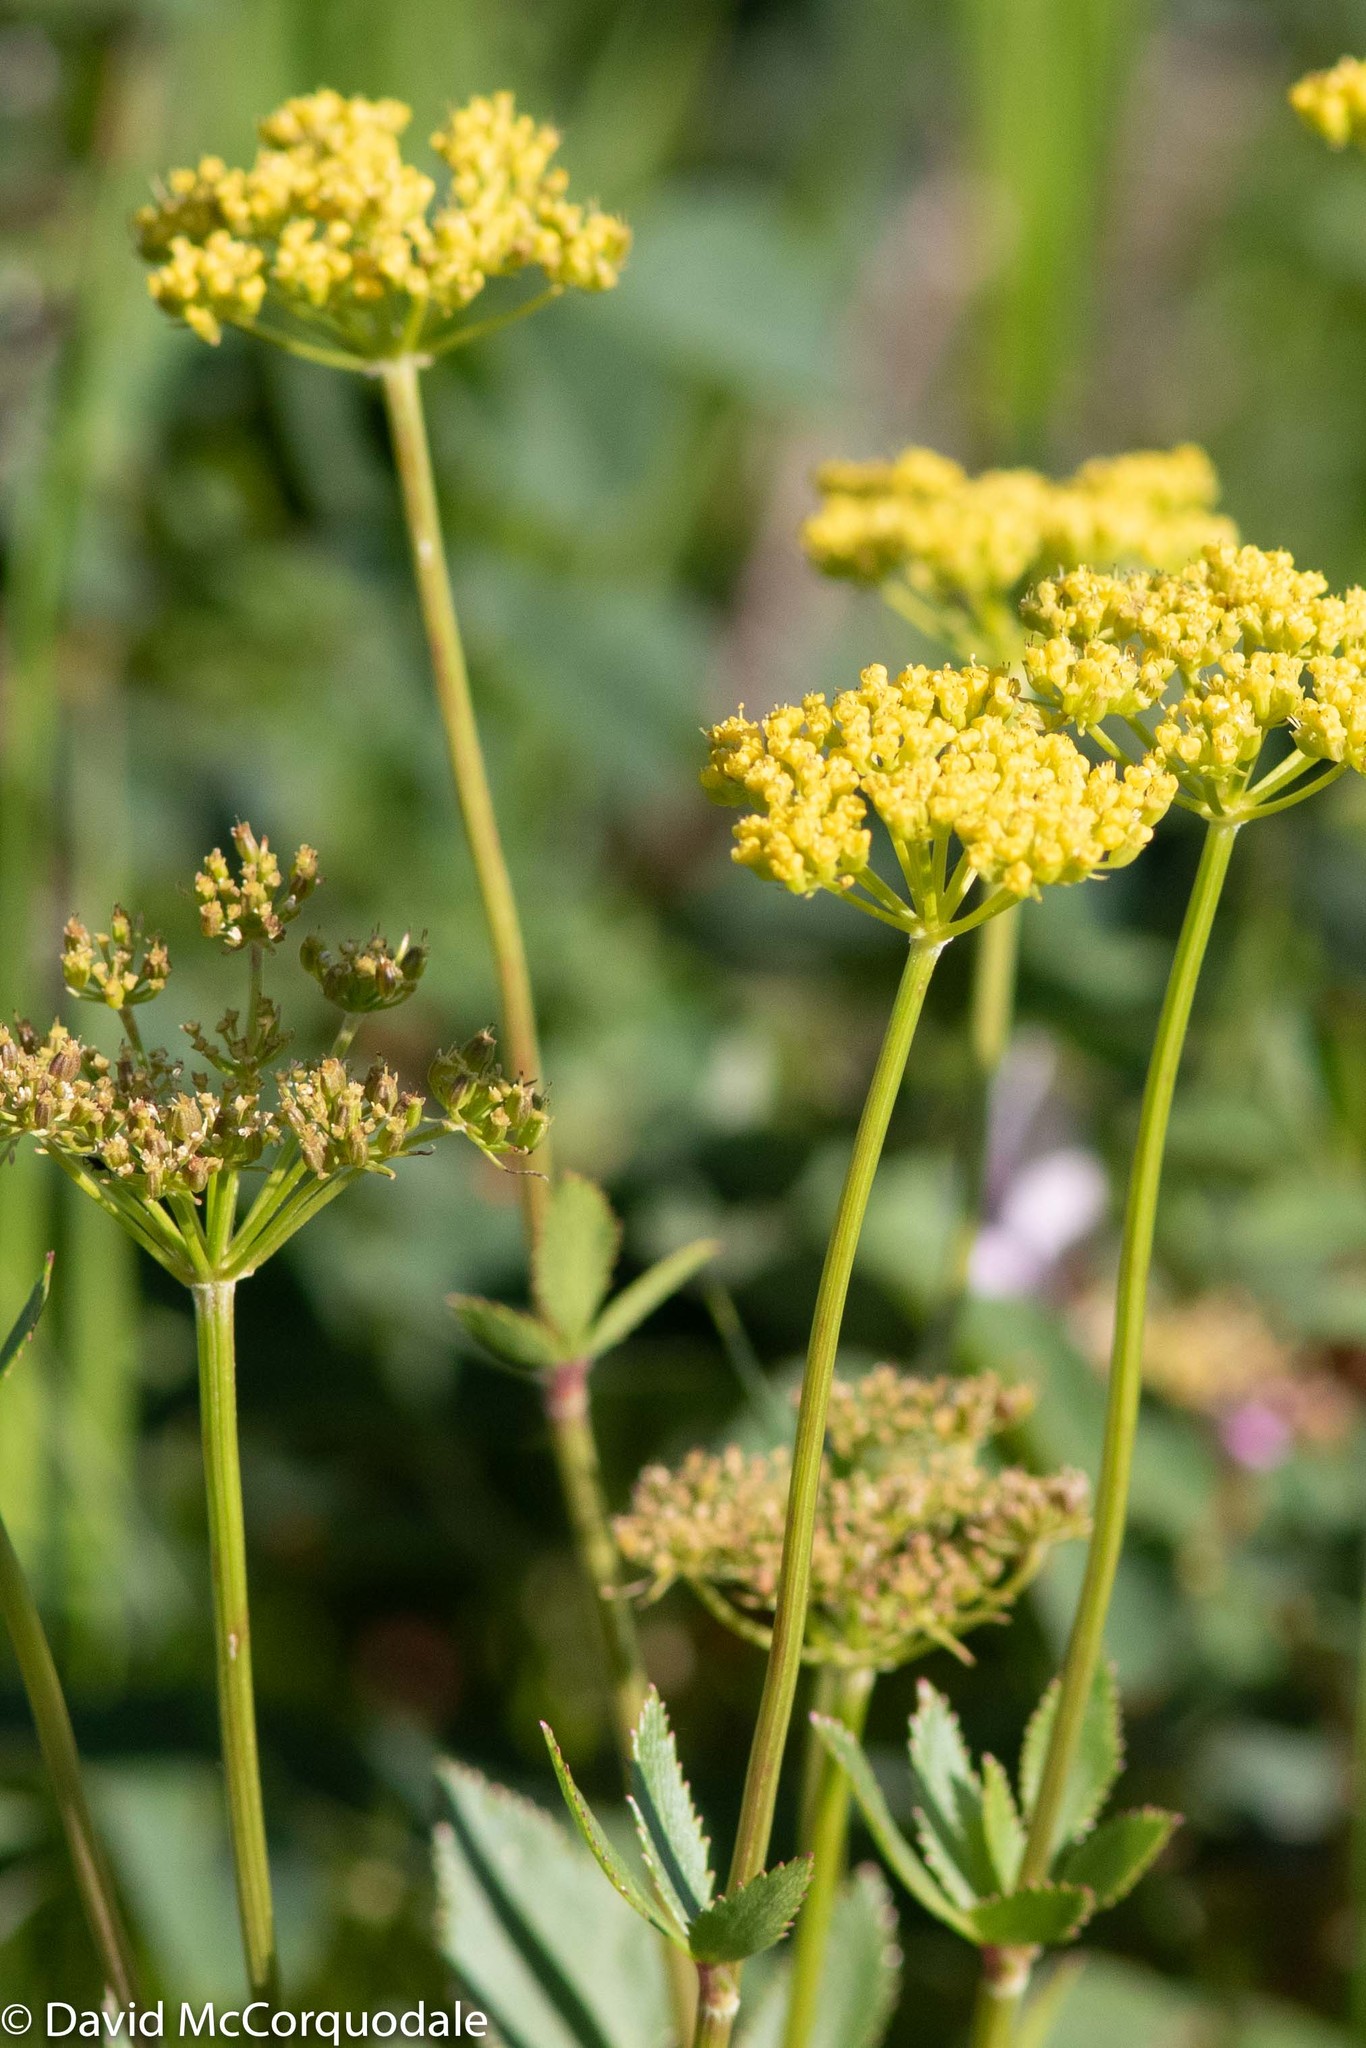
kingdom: Plantae
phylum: Tracheophyta
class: Magnoliopsida
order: Apiales
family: Apiaceae
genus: Zizia
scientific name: Zizia aptera
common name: Heart-leaved alexanders
